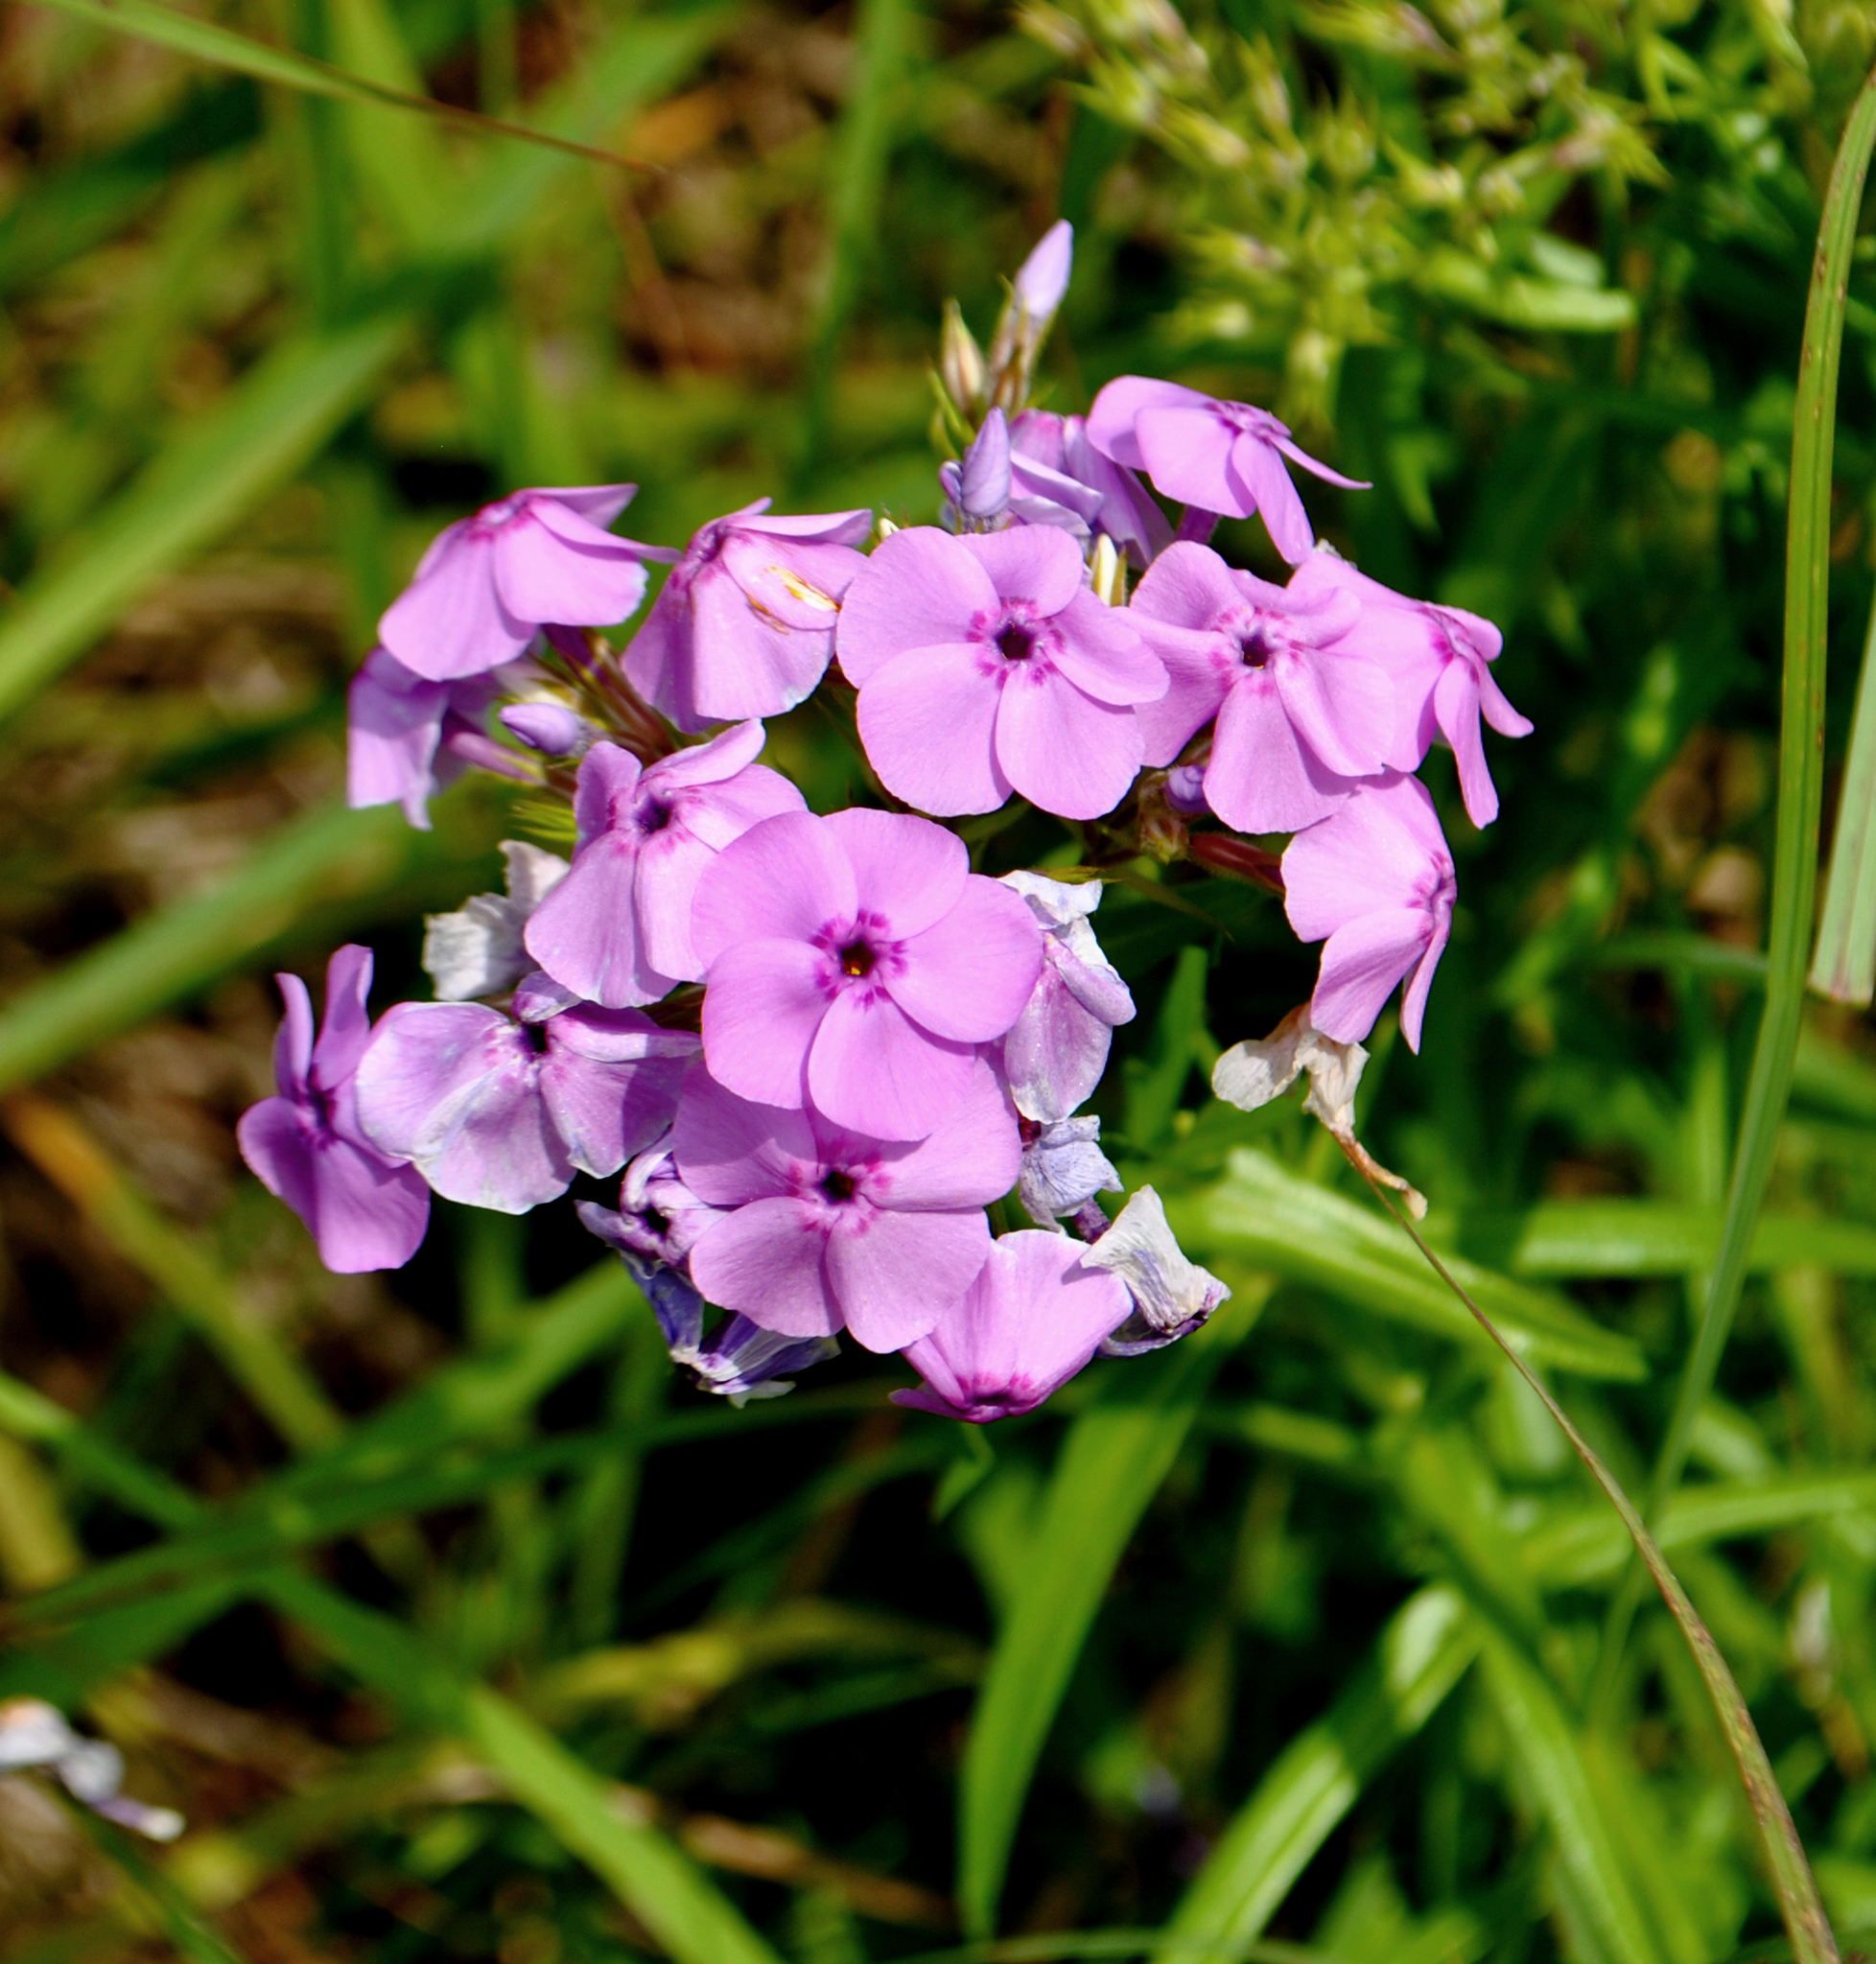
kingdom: Plantae
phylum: Tracheophyta
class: Magnoliopsida
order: Ericales
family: Polemoniaceae
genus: Phlox
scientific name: Phlox pilosa
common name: Prairie phlox
